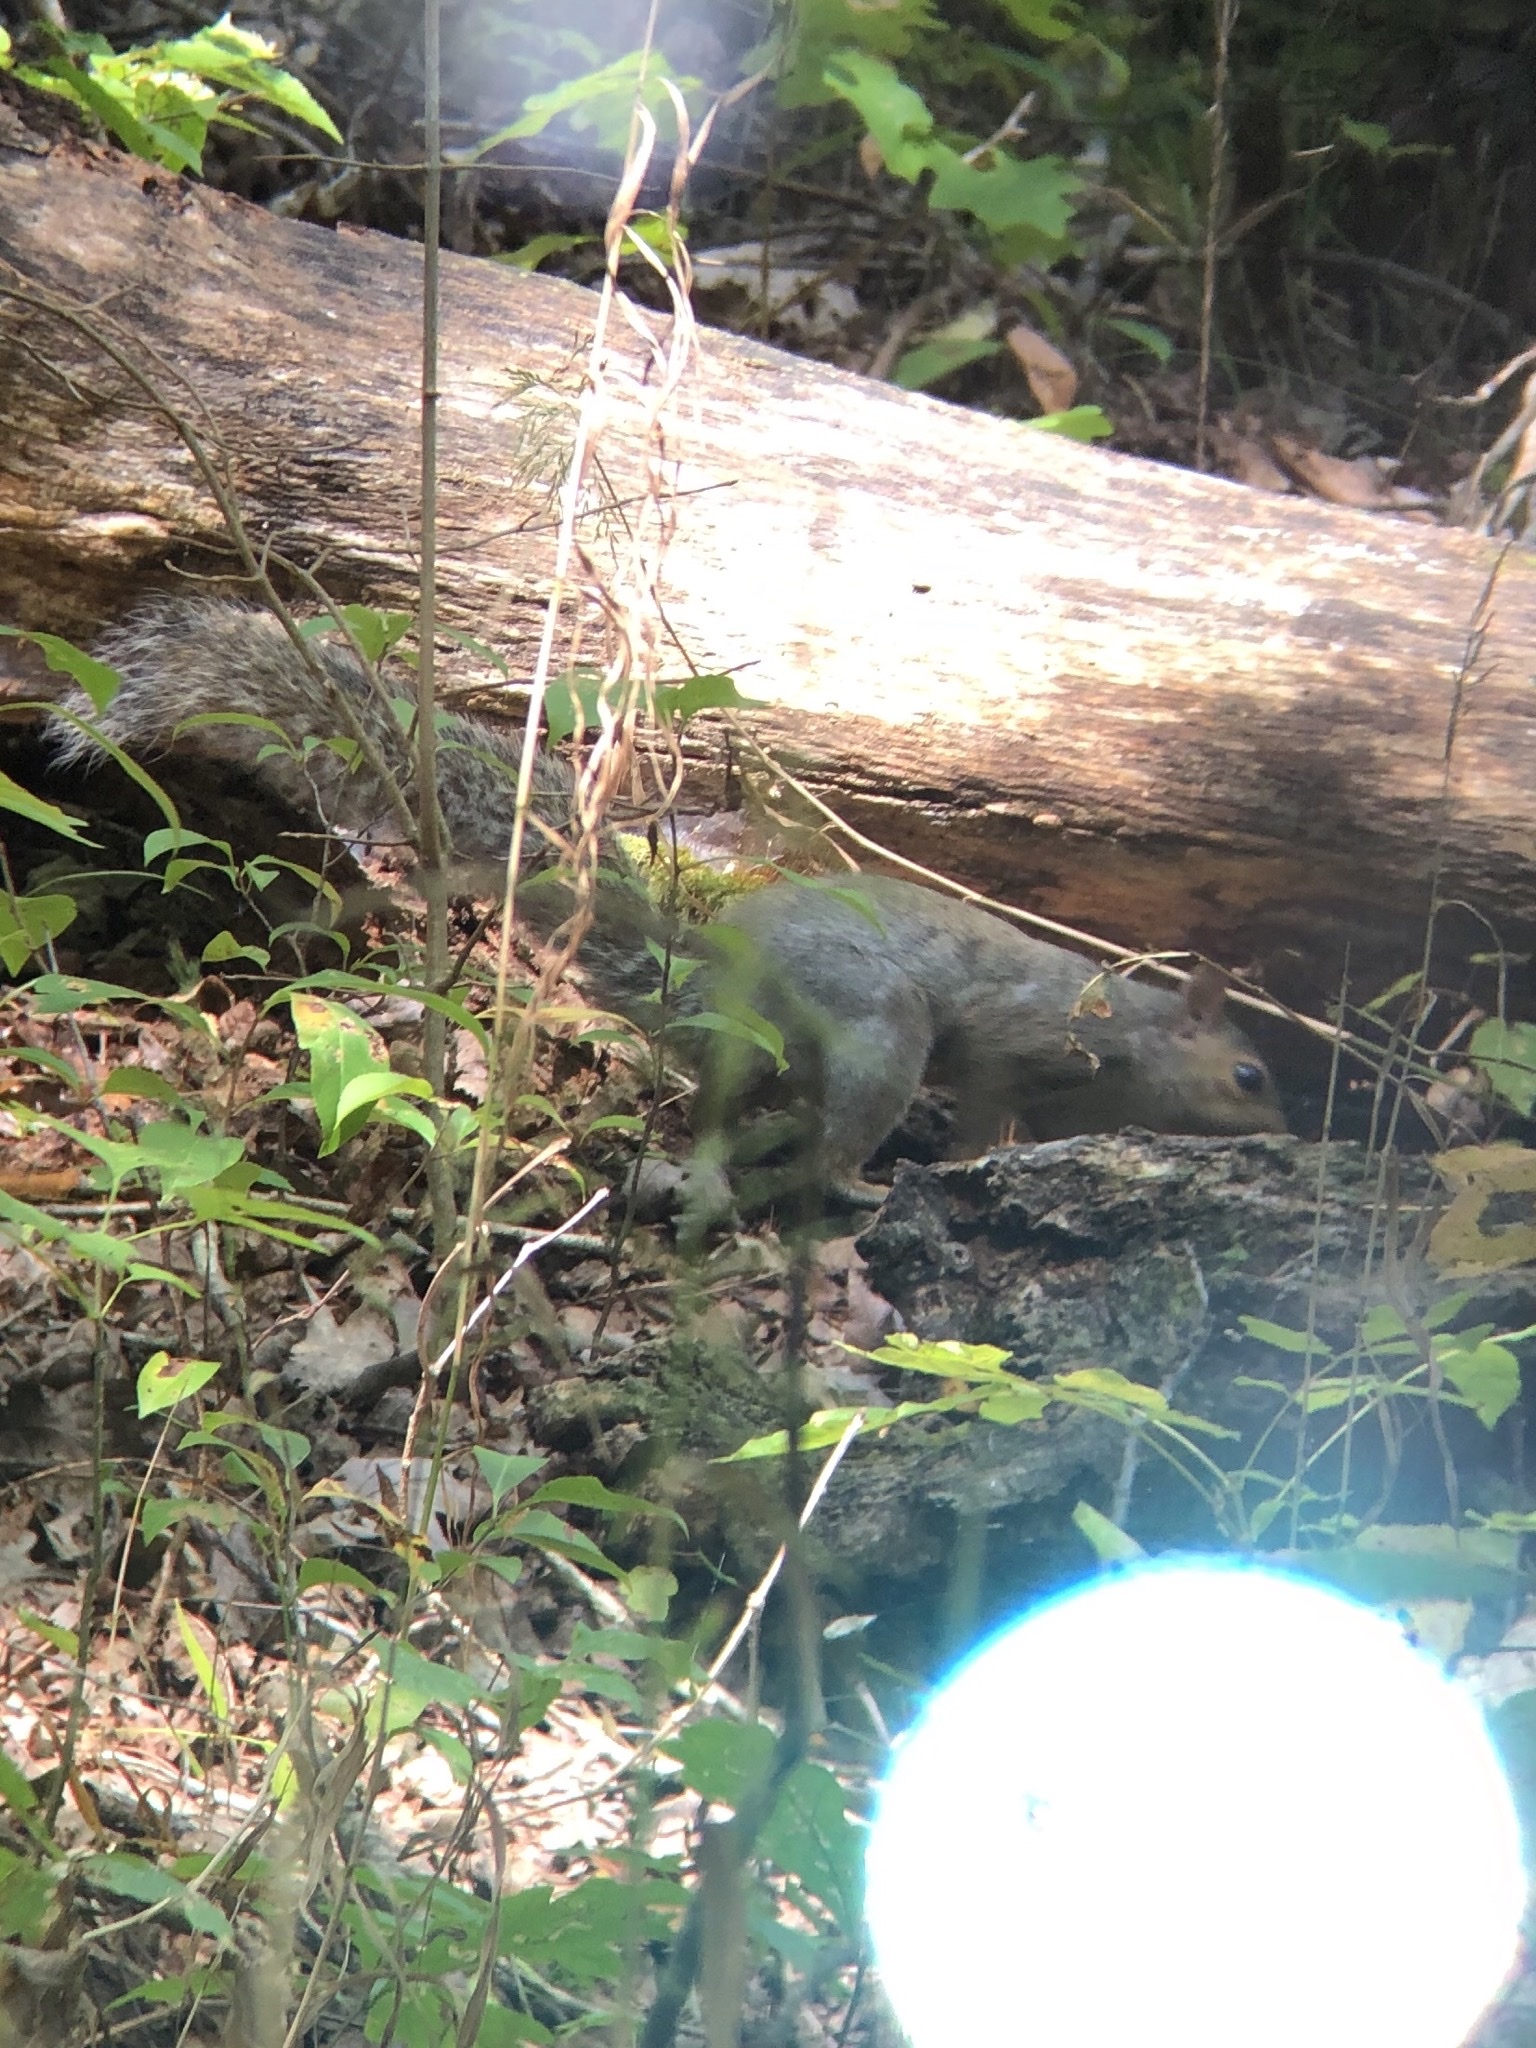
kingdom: Animalia
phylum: Chordata
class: Mammalia
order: Rodentia
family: Sciuridae
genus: Sciurus
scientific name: Sciurus carolinensis
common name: Eastern gray squirrel
